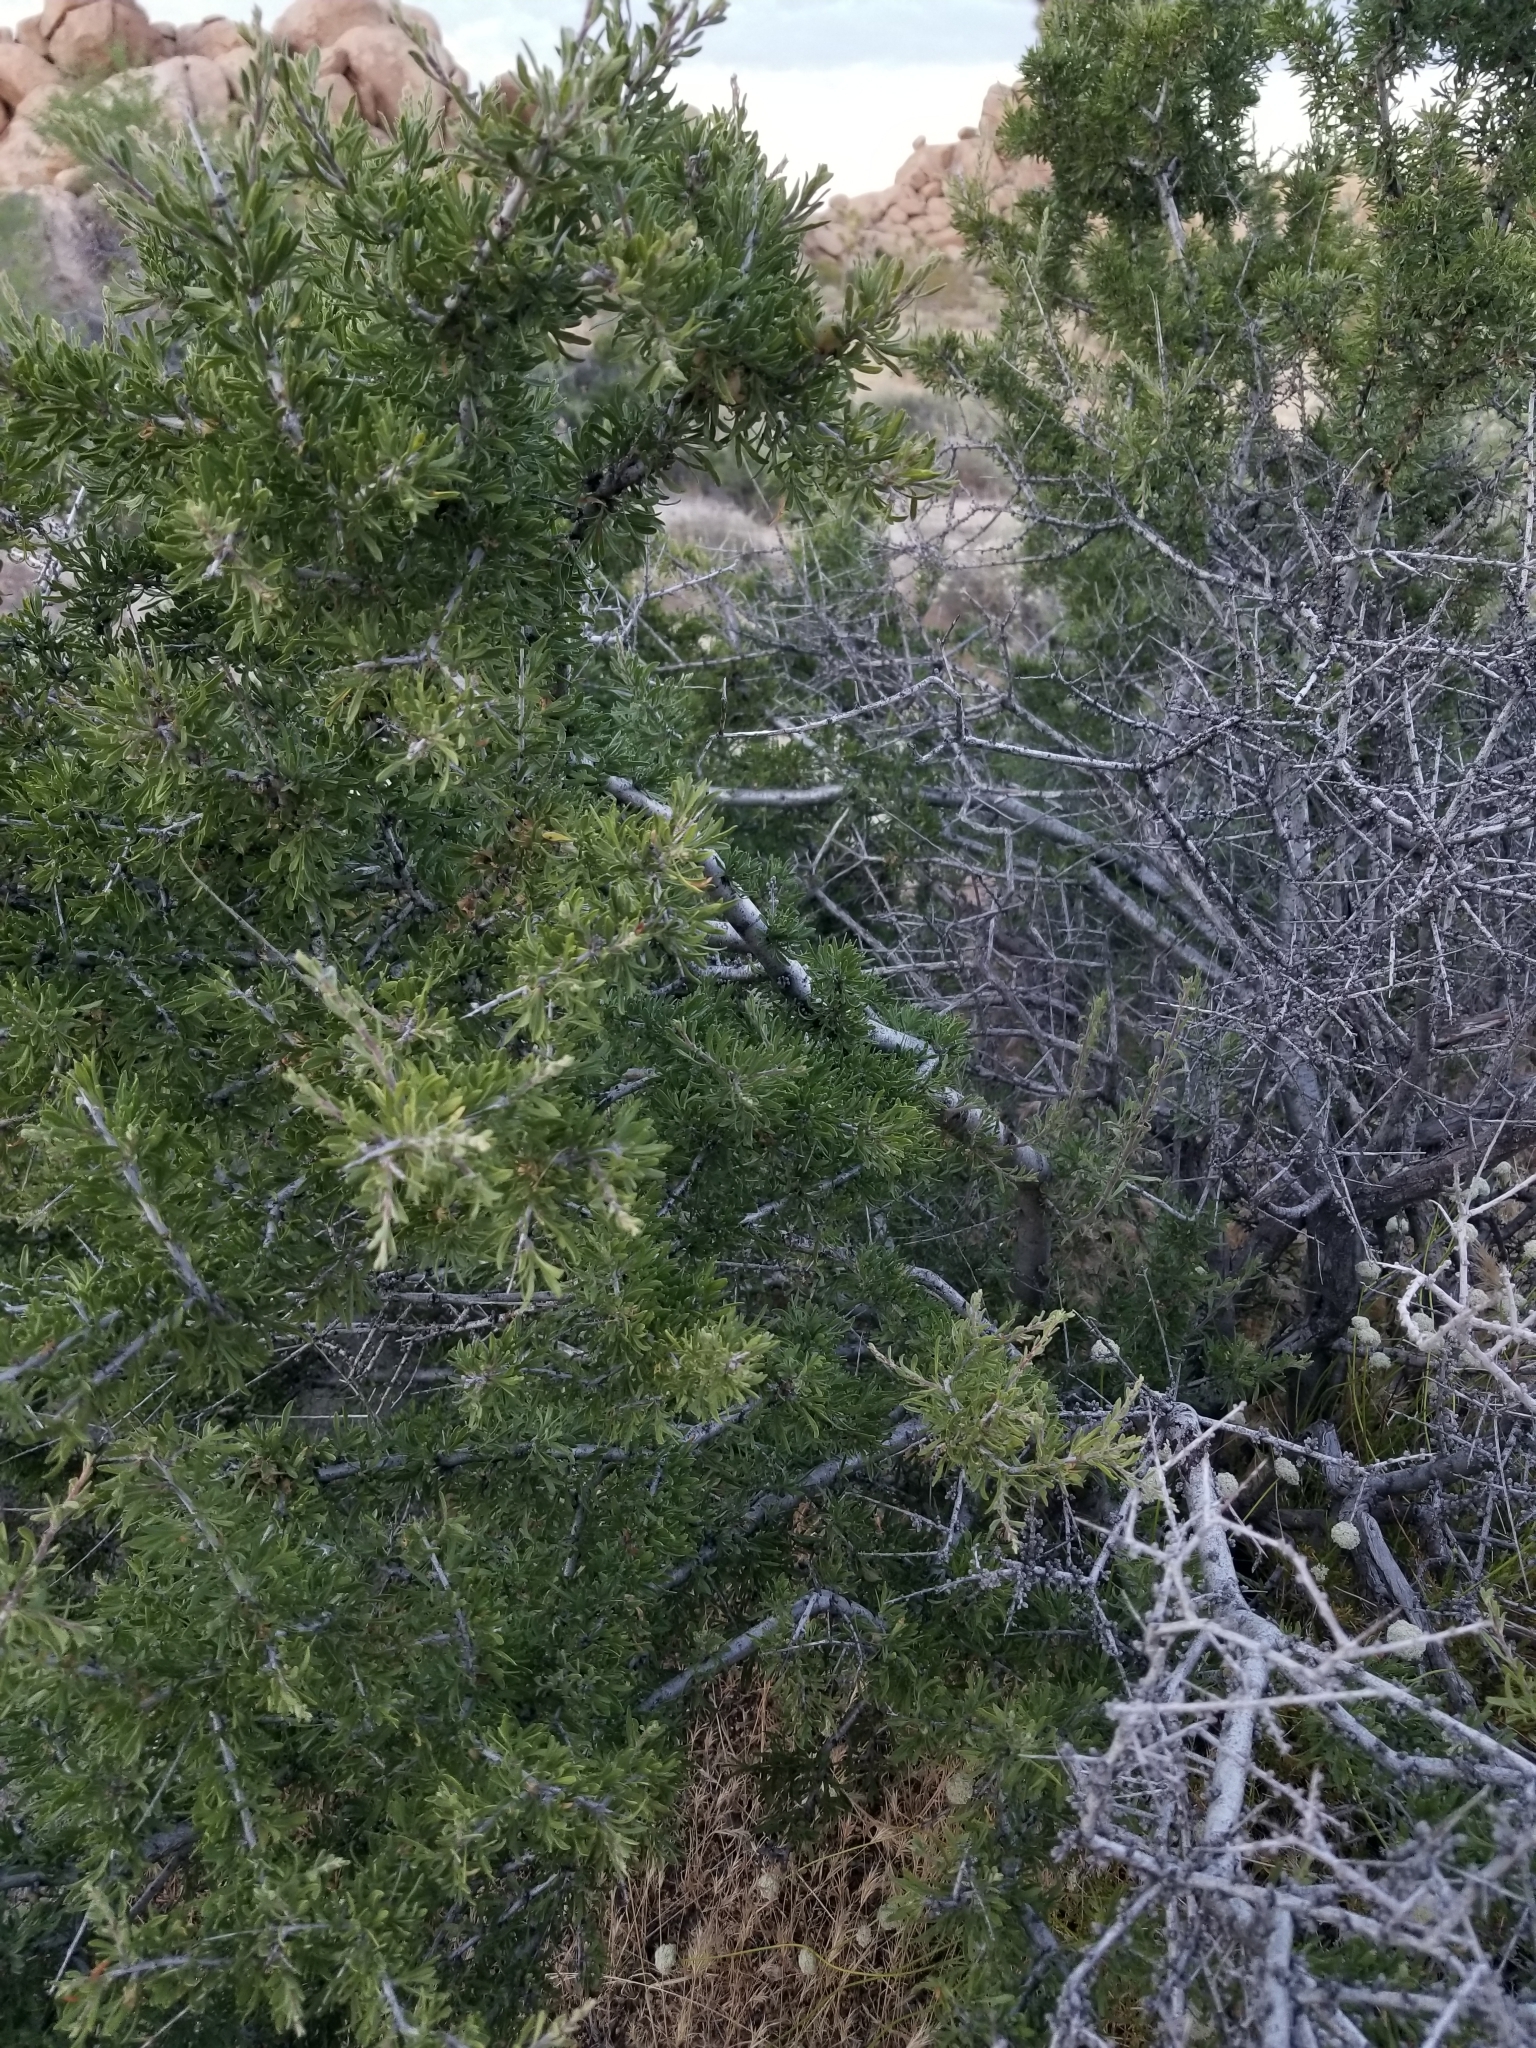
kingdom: Plantae
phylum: Tracheophyta
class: Magnoliopsida
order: Rosales
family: Rosaceae
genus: Prunus
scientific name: Prunus fasciculata
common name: Desert almond
